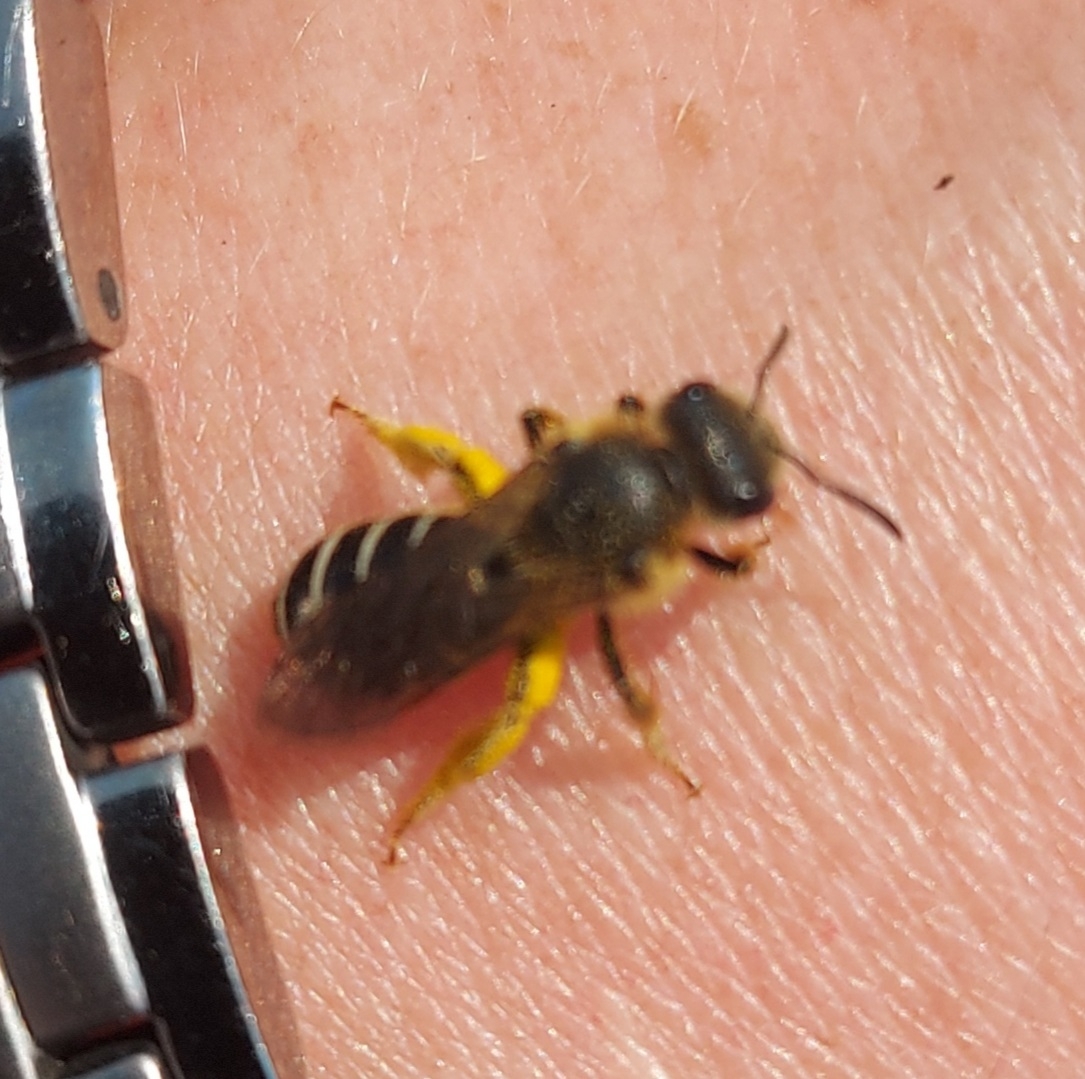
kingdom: Animalia
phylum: Arthropoda
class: Insecta
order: Hymenoptera
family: Halictidae
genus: Halictus
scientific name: Halictus rubicundus
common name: Orange-legged furrow bee
